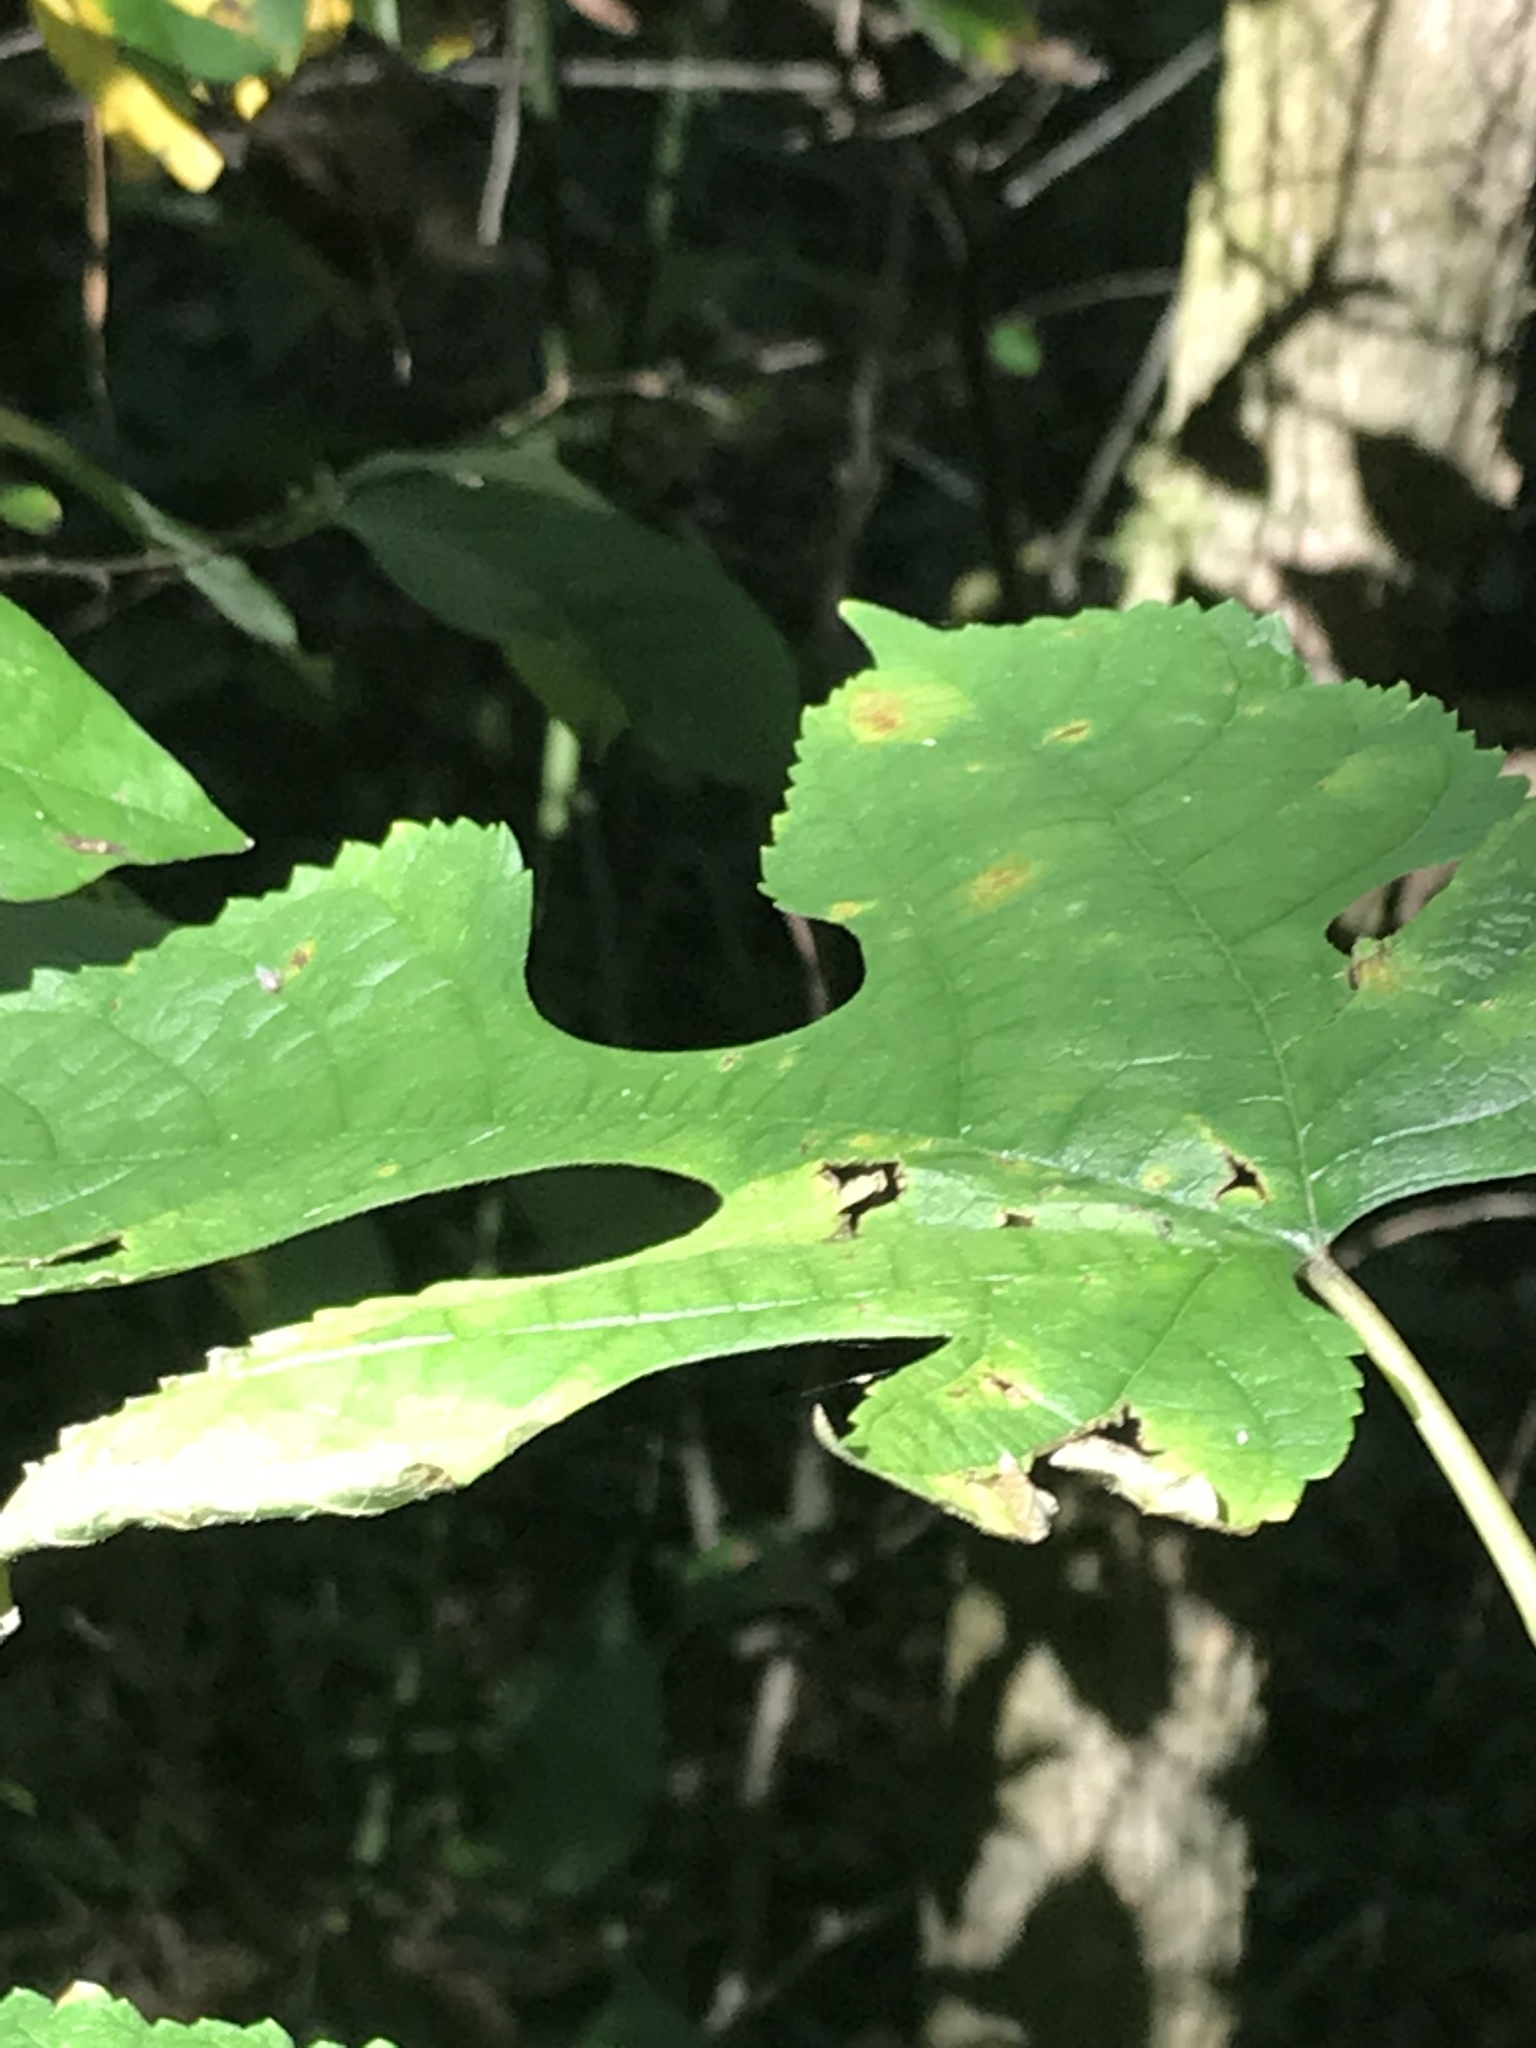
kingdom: Plantae
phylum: Tracheophyta
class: Magnoliopsida
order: Rosales
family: Moraceae
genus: Morus
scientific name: Morus rubra
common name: Red mulberry
